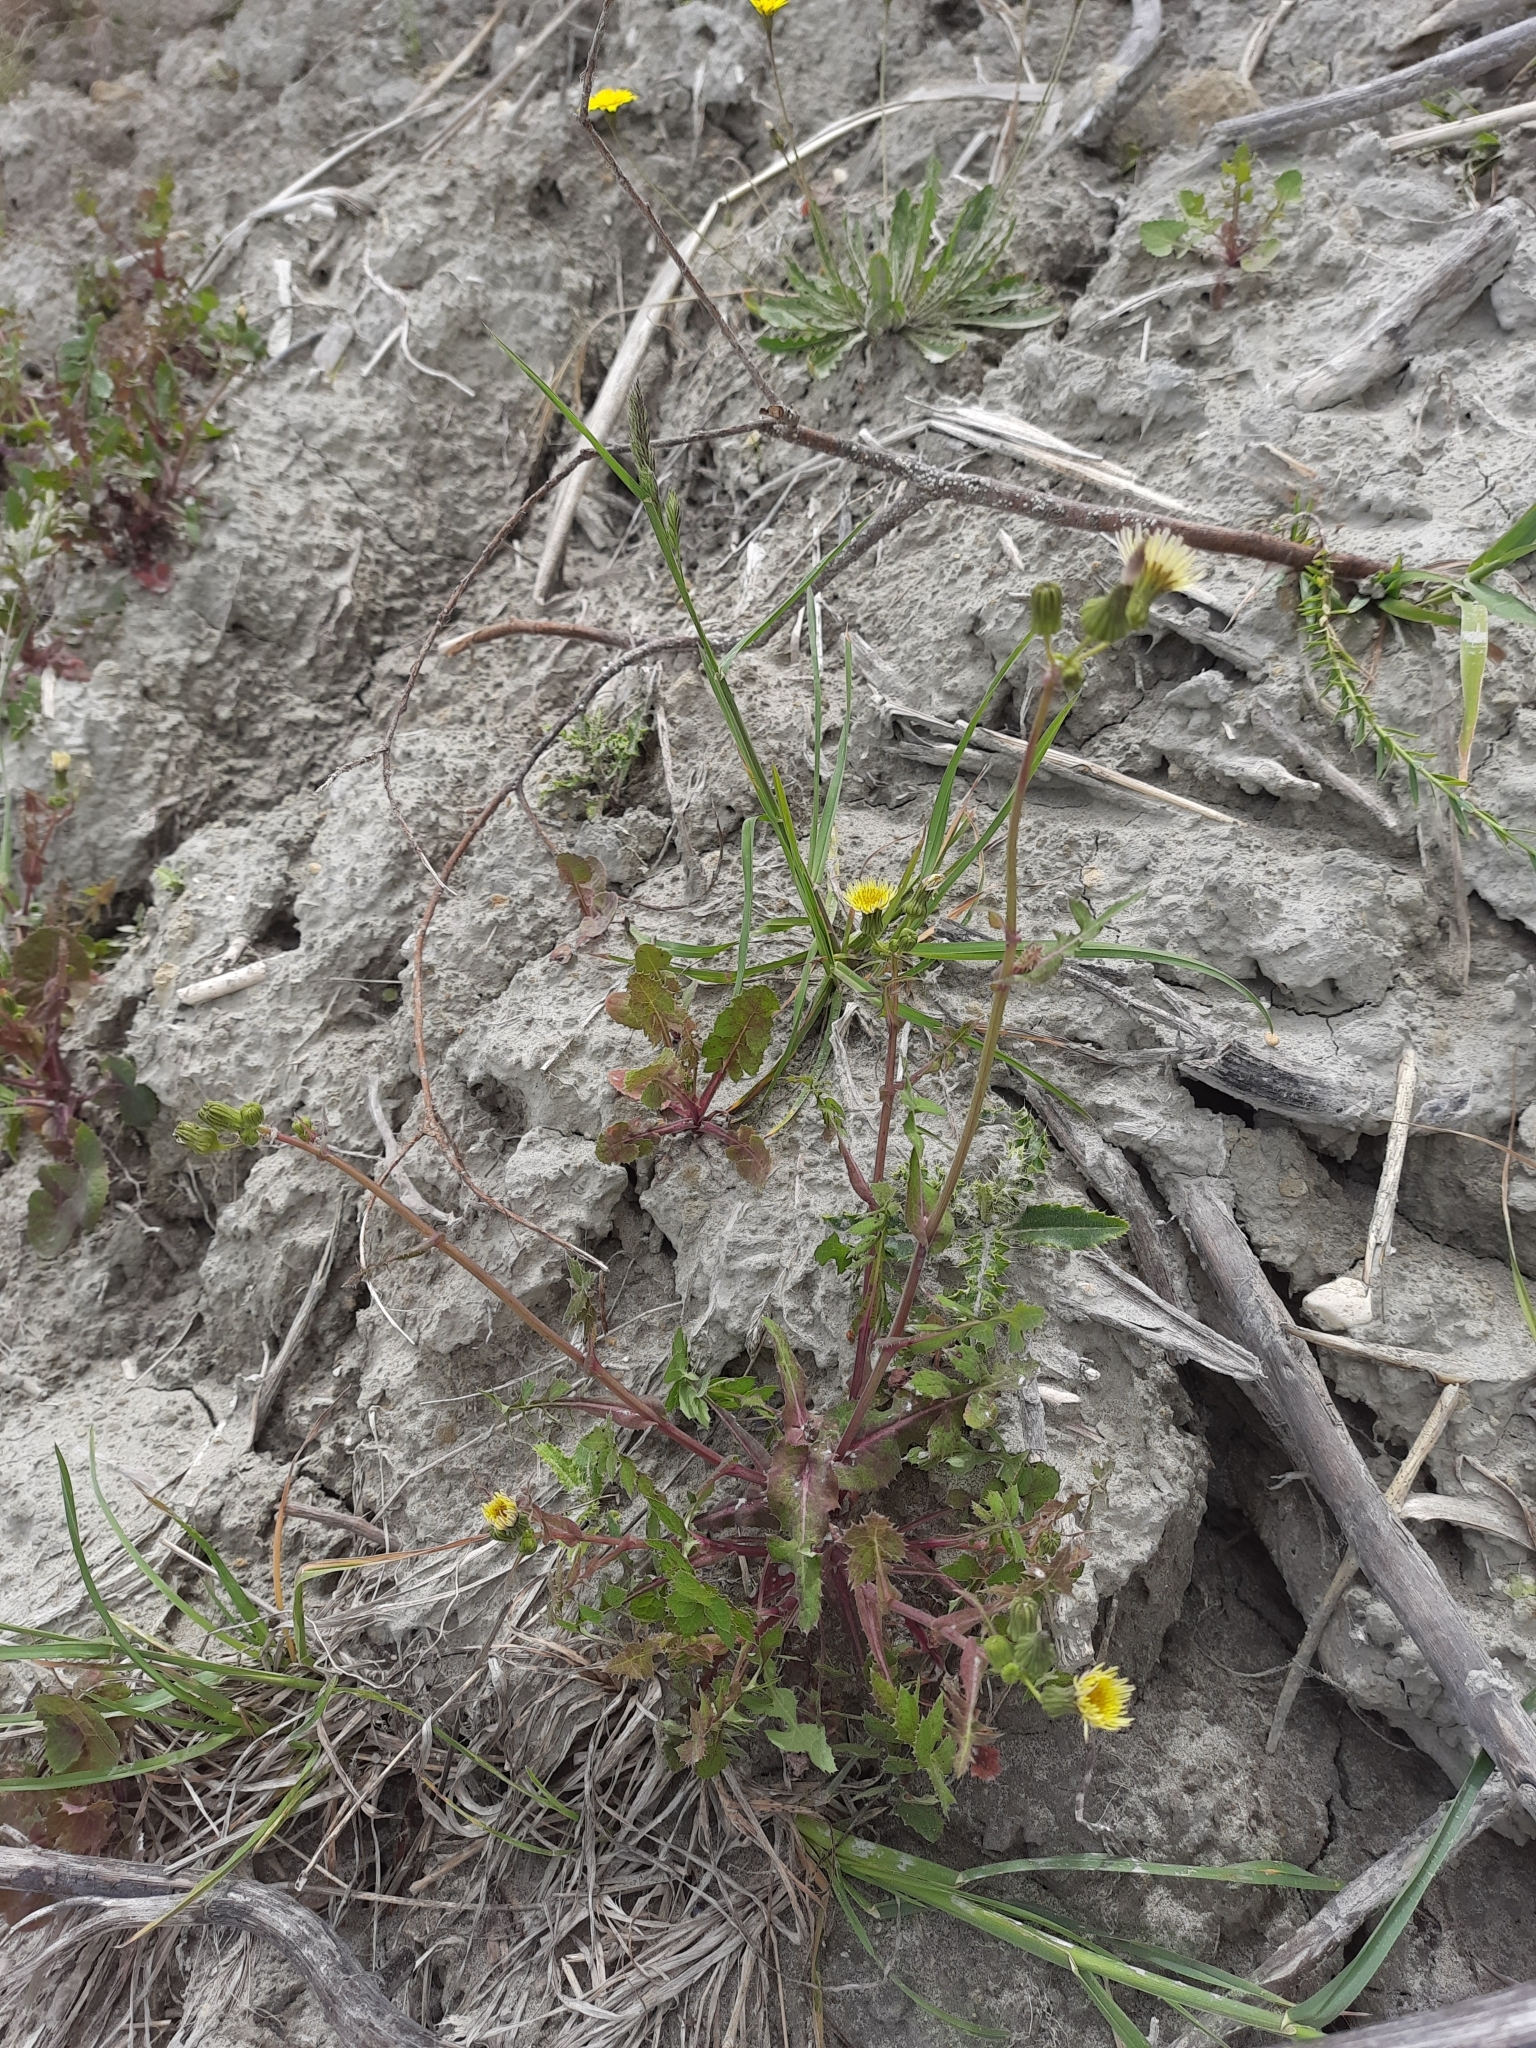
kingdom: Plantae
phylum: Tracheophyta
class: Magnoliopsida
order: Asterales
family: Asteraceae
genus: Sonchus
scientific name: Sonchus oleraceus
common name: Common sowthistle
